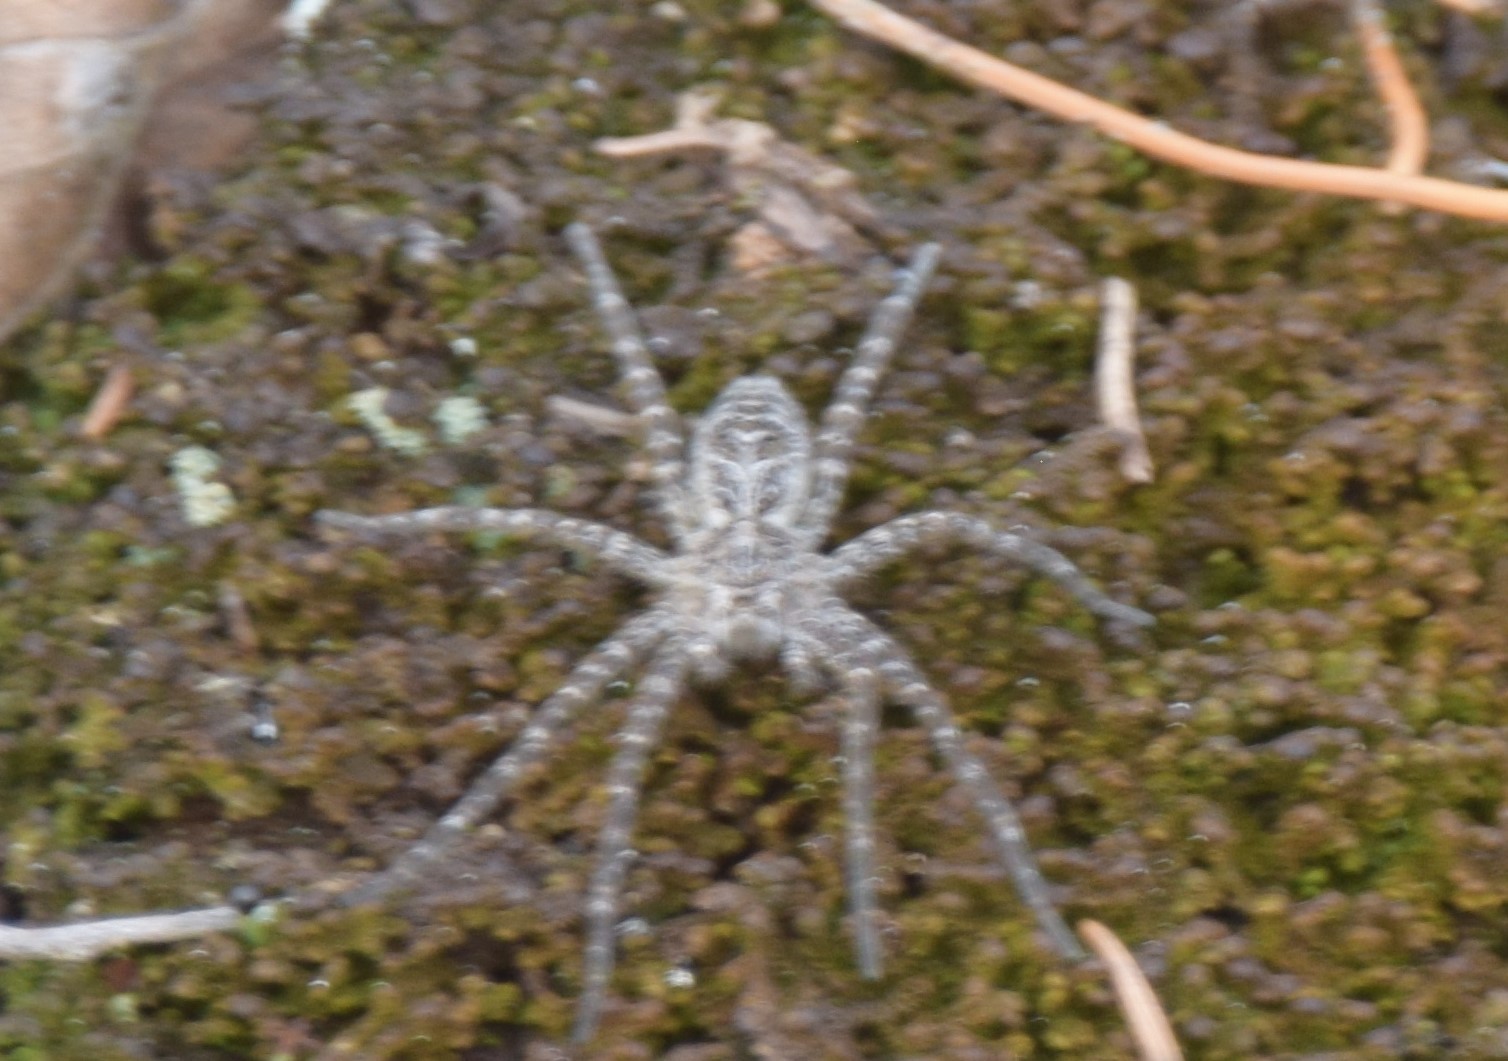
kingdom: Animalia
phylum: Arthropoda
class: Arachnida
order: Araneae
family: Pisauridae
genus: Dolomedes
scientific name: Dolomedes scriptus
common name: Striped fishing spider
